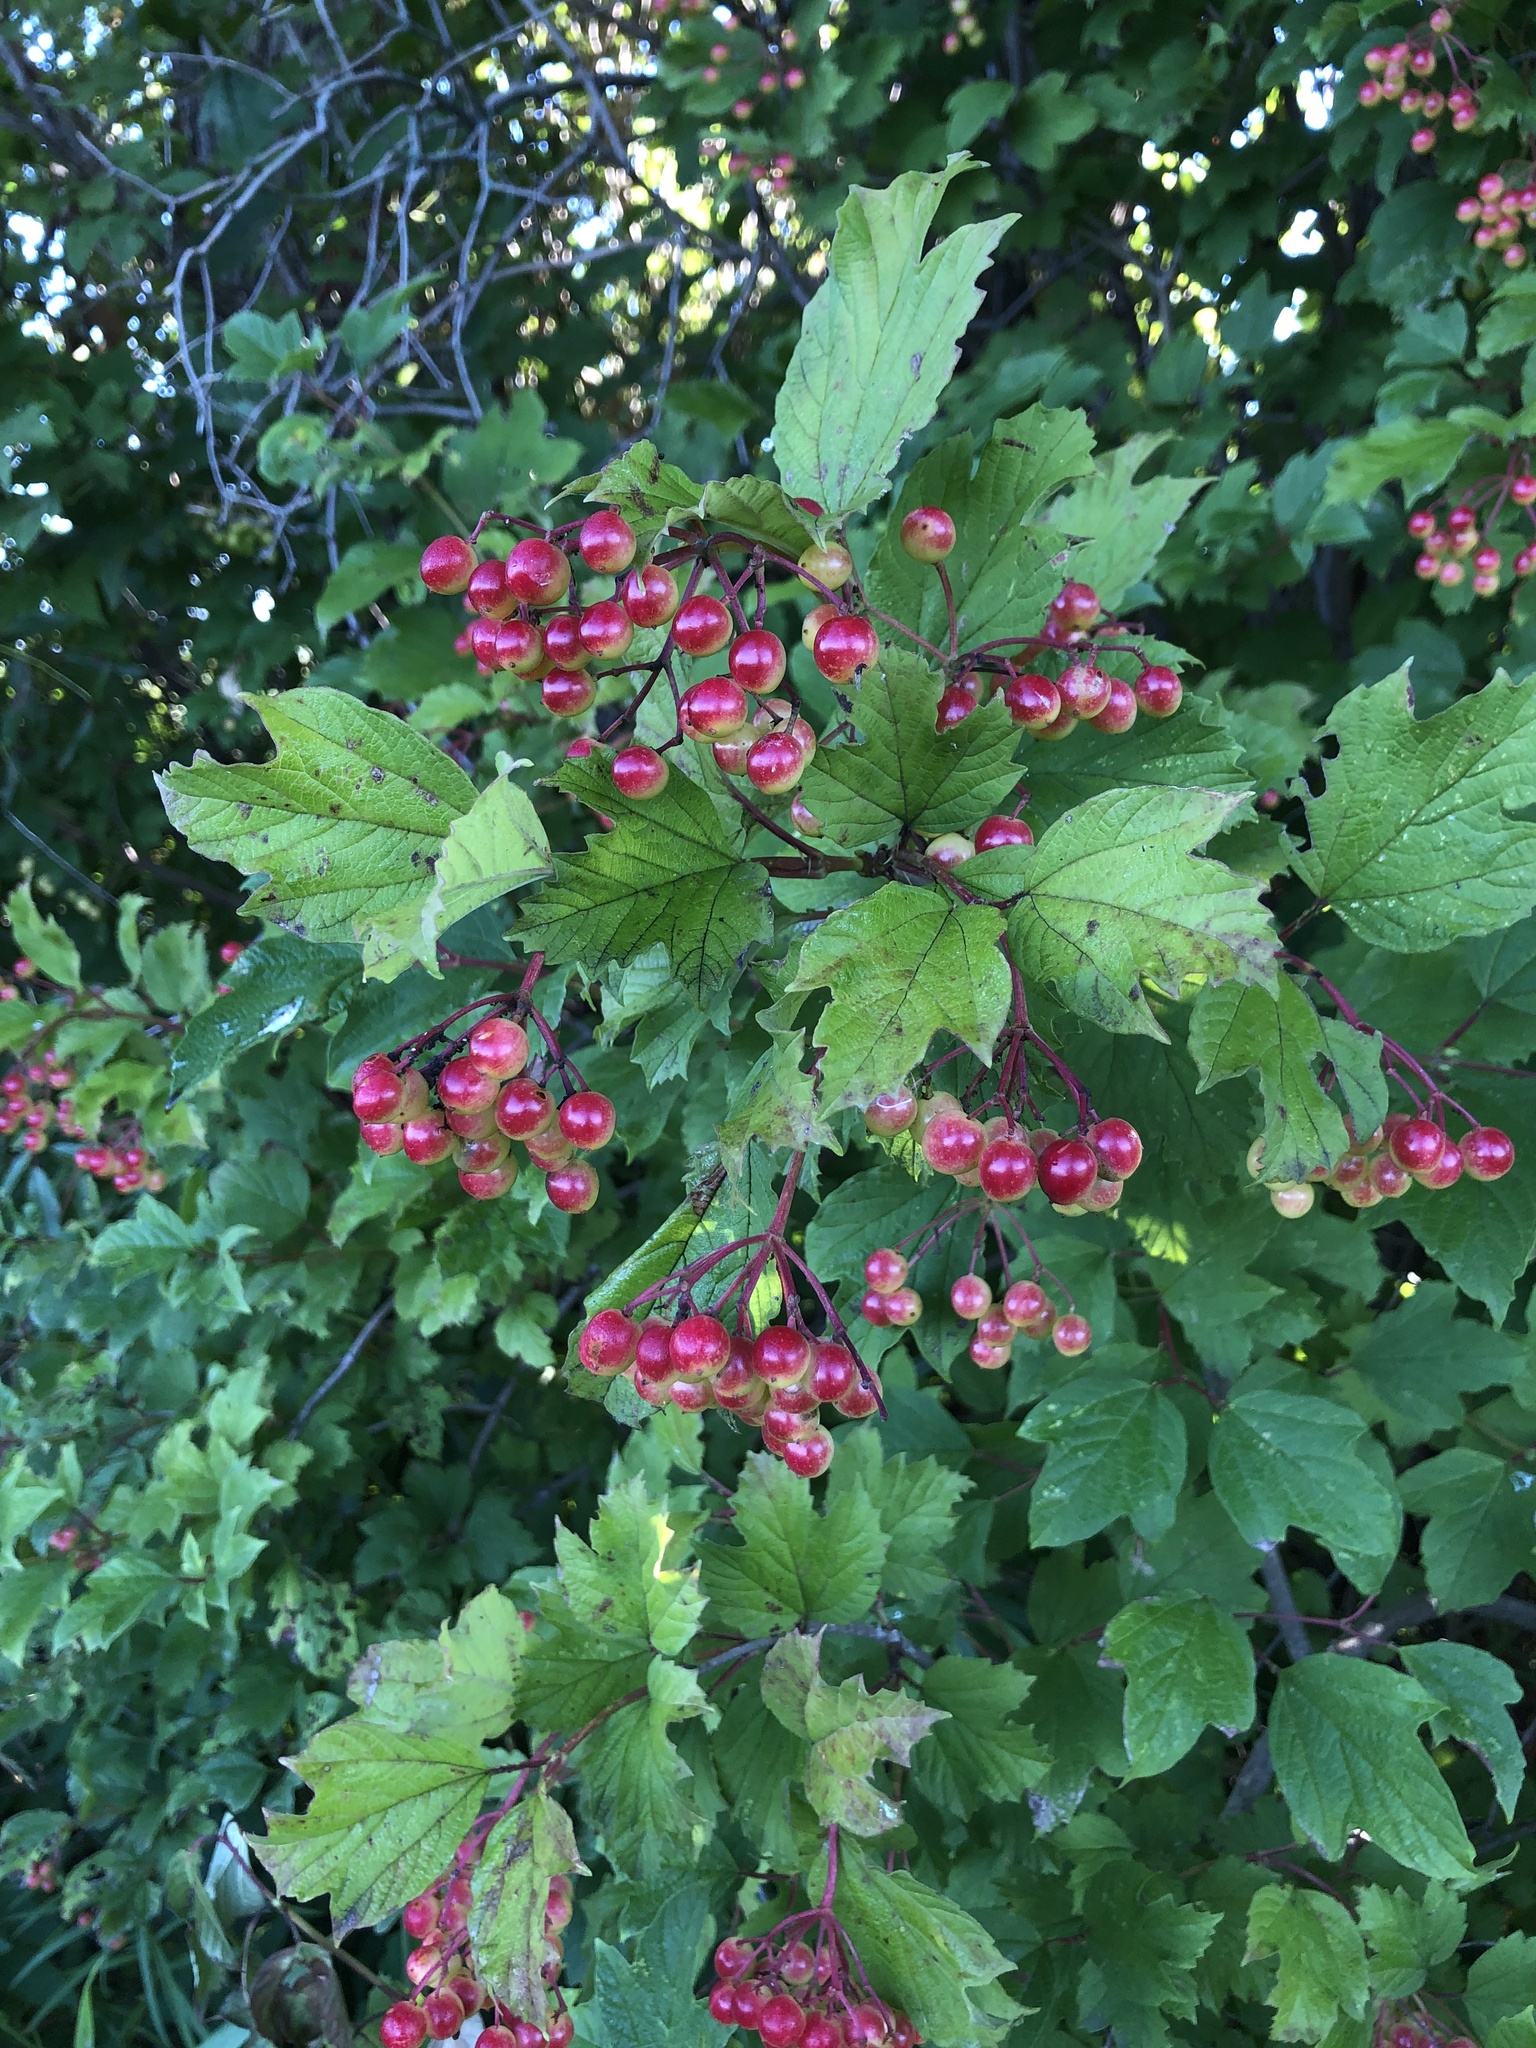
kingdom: Plantae
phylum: Tracheophyta
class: Magnoliopsida
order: Dipsacales
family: Viburnaceae
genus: Viburnum
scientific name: Viburnum opulus
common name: Guelder-rose
